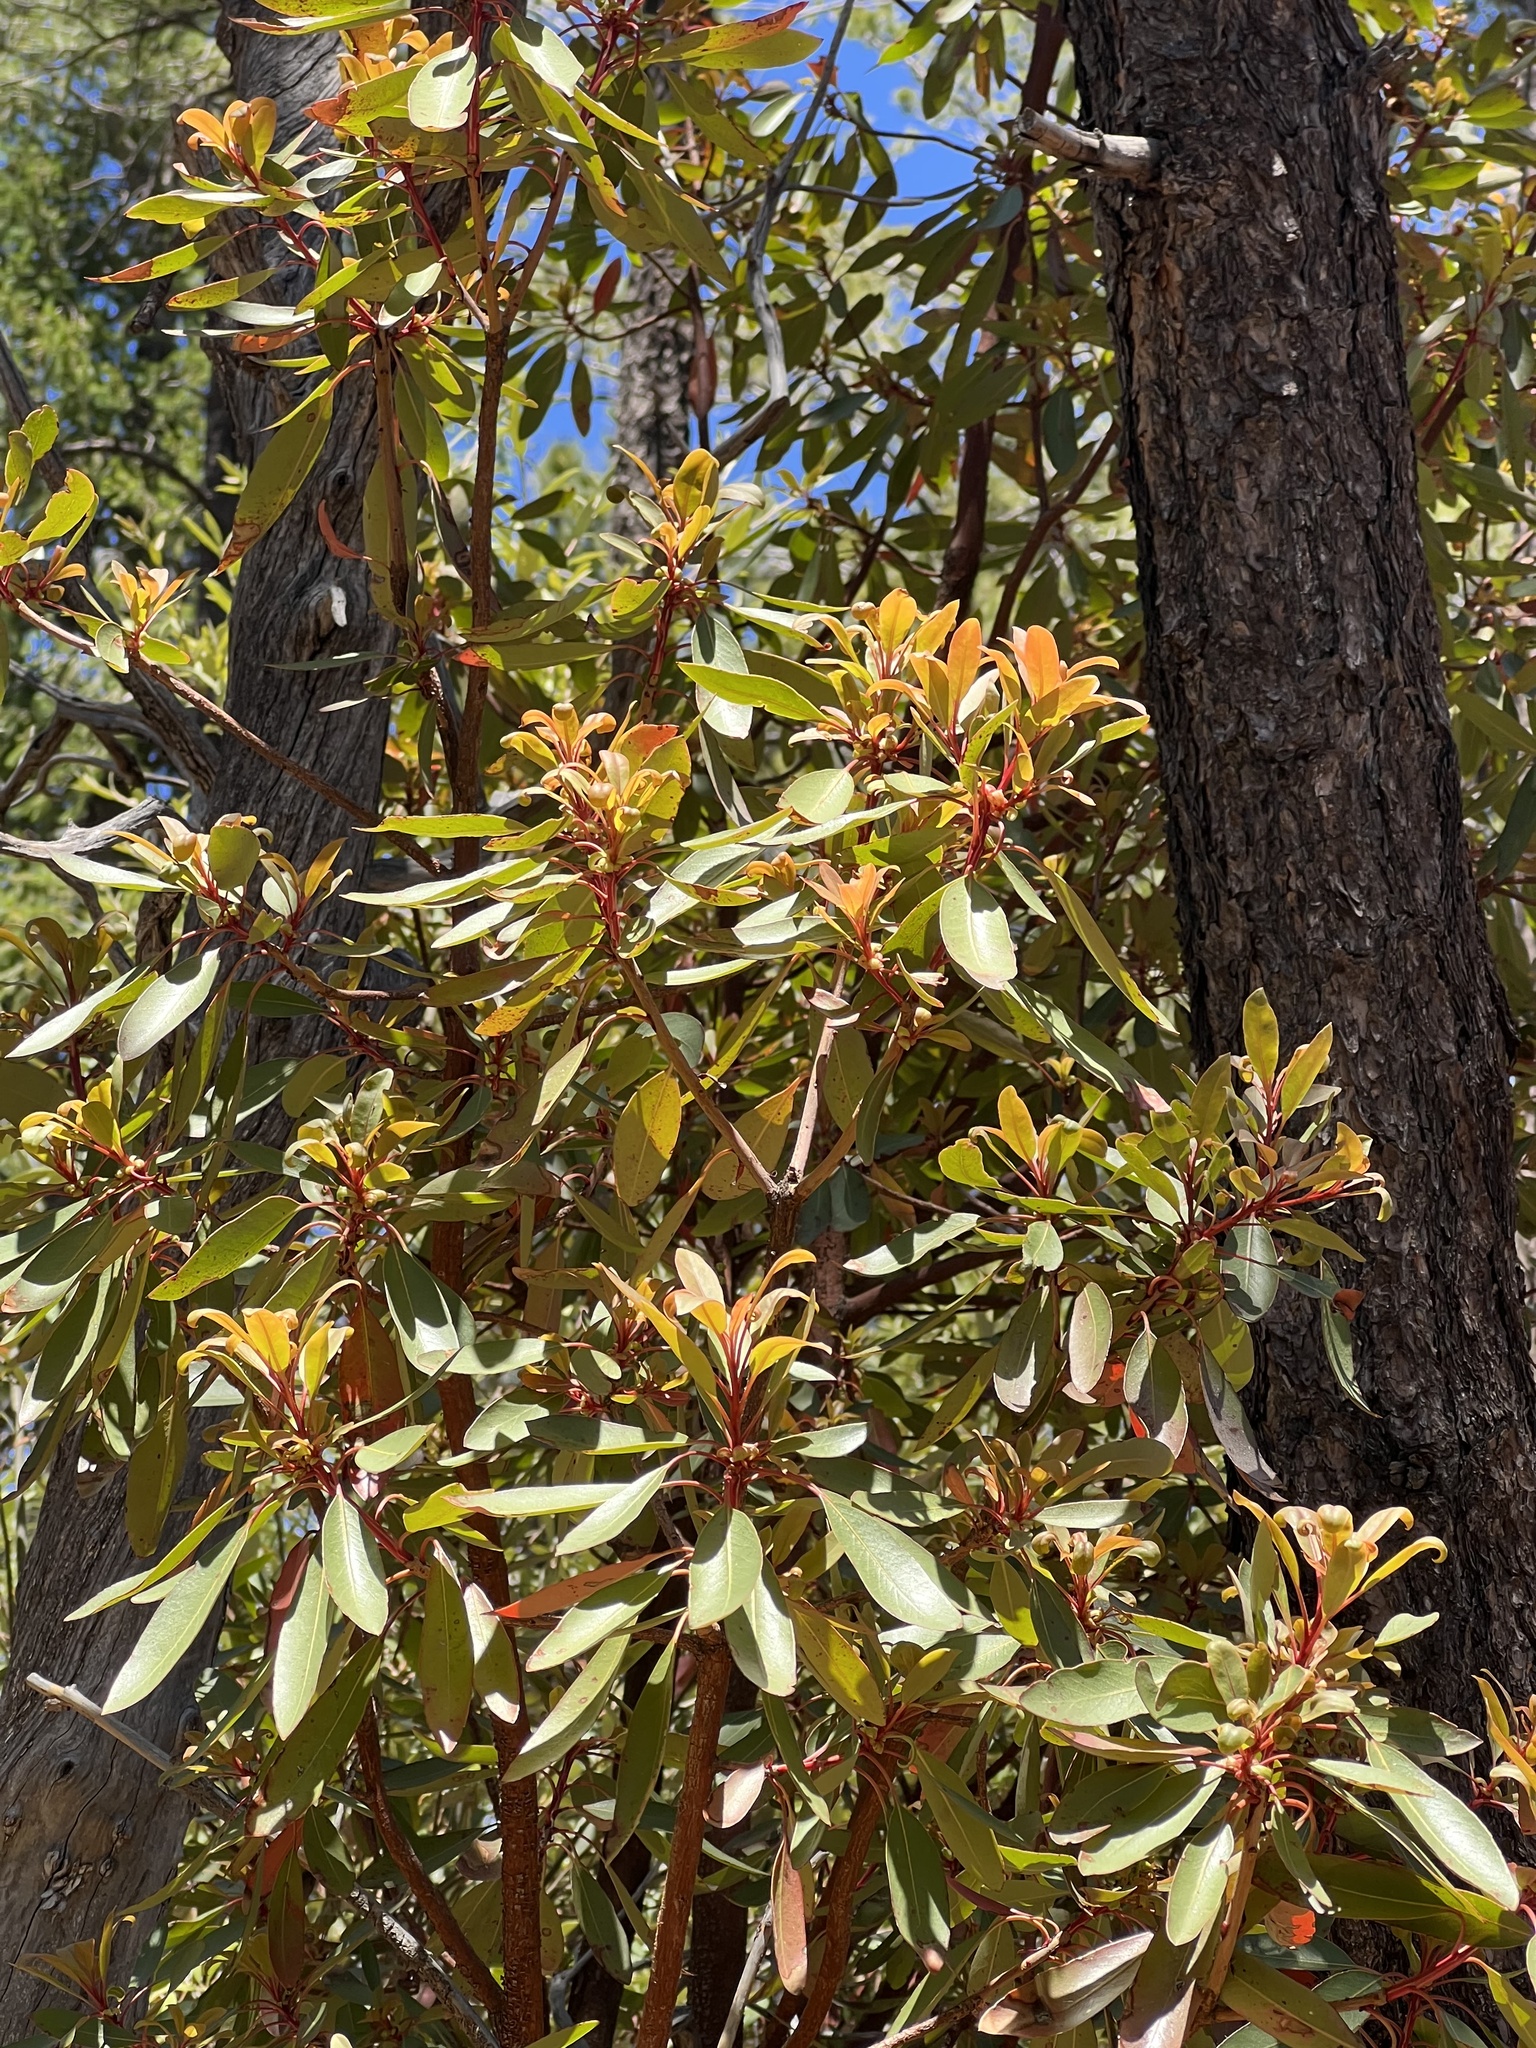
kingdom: Plantae
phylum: Tracheophyta
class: Magnoliopsida
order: Ericales
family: Ericaceae
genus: Arbutus
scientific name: Arbutus arizonica
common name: Arizona madrone
